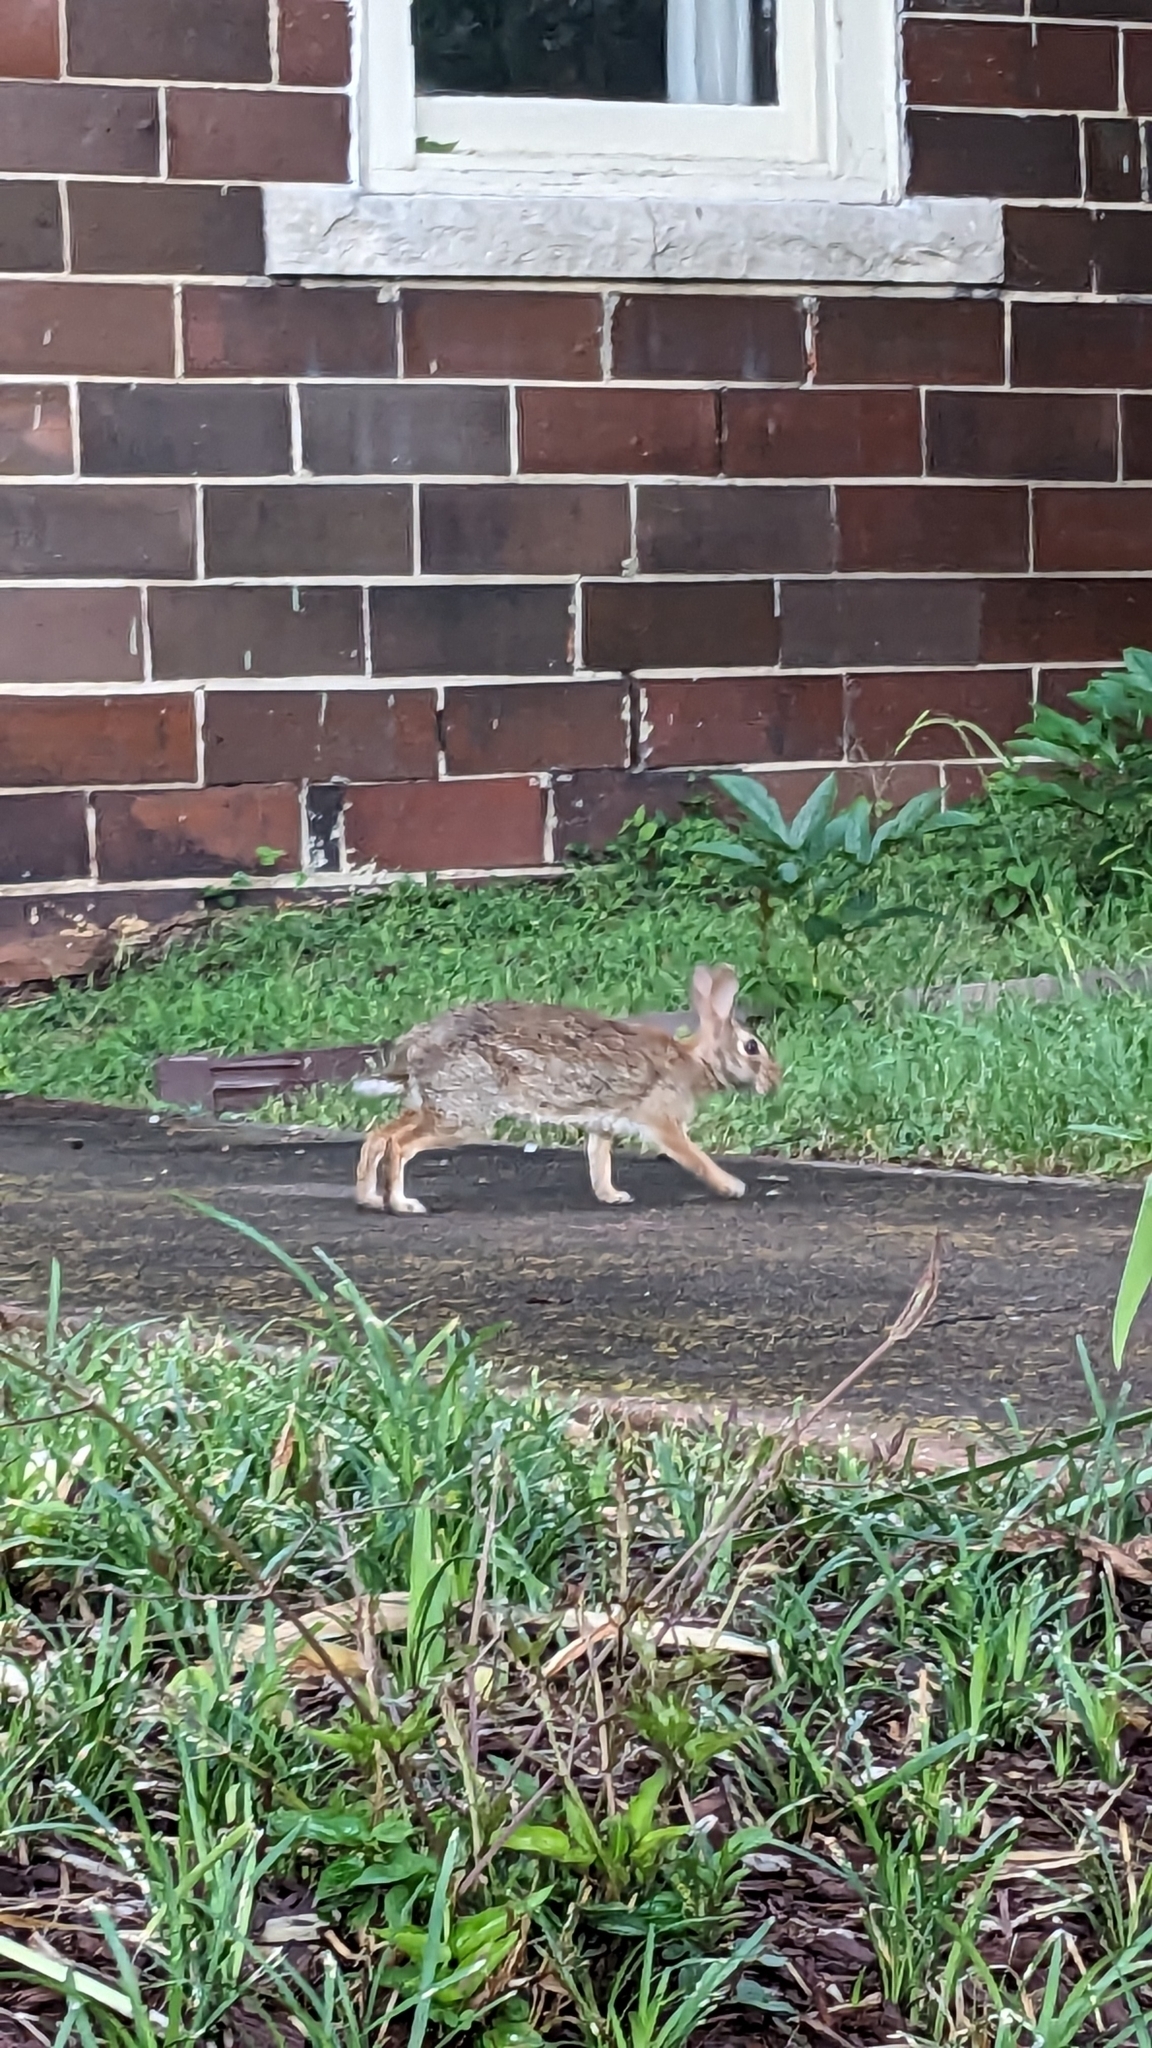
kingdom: Animalia
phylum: Chordata
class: Mammalia
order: Lagomorpha
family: Leporidae
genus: Sylvilagus
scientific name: Sylvilagus floridanus
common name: Eastern cottontail
